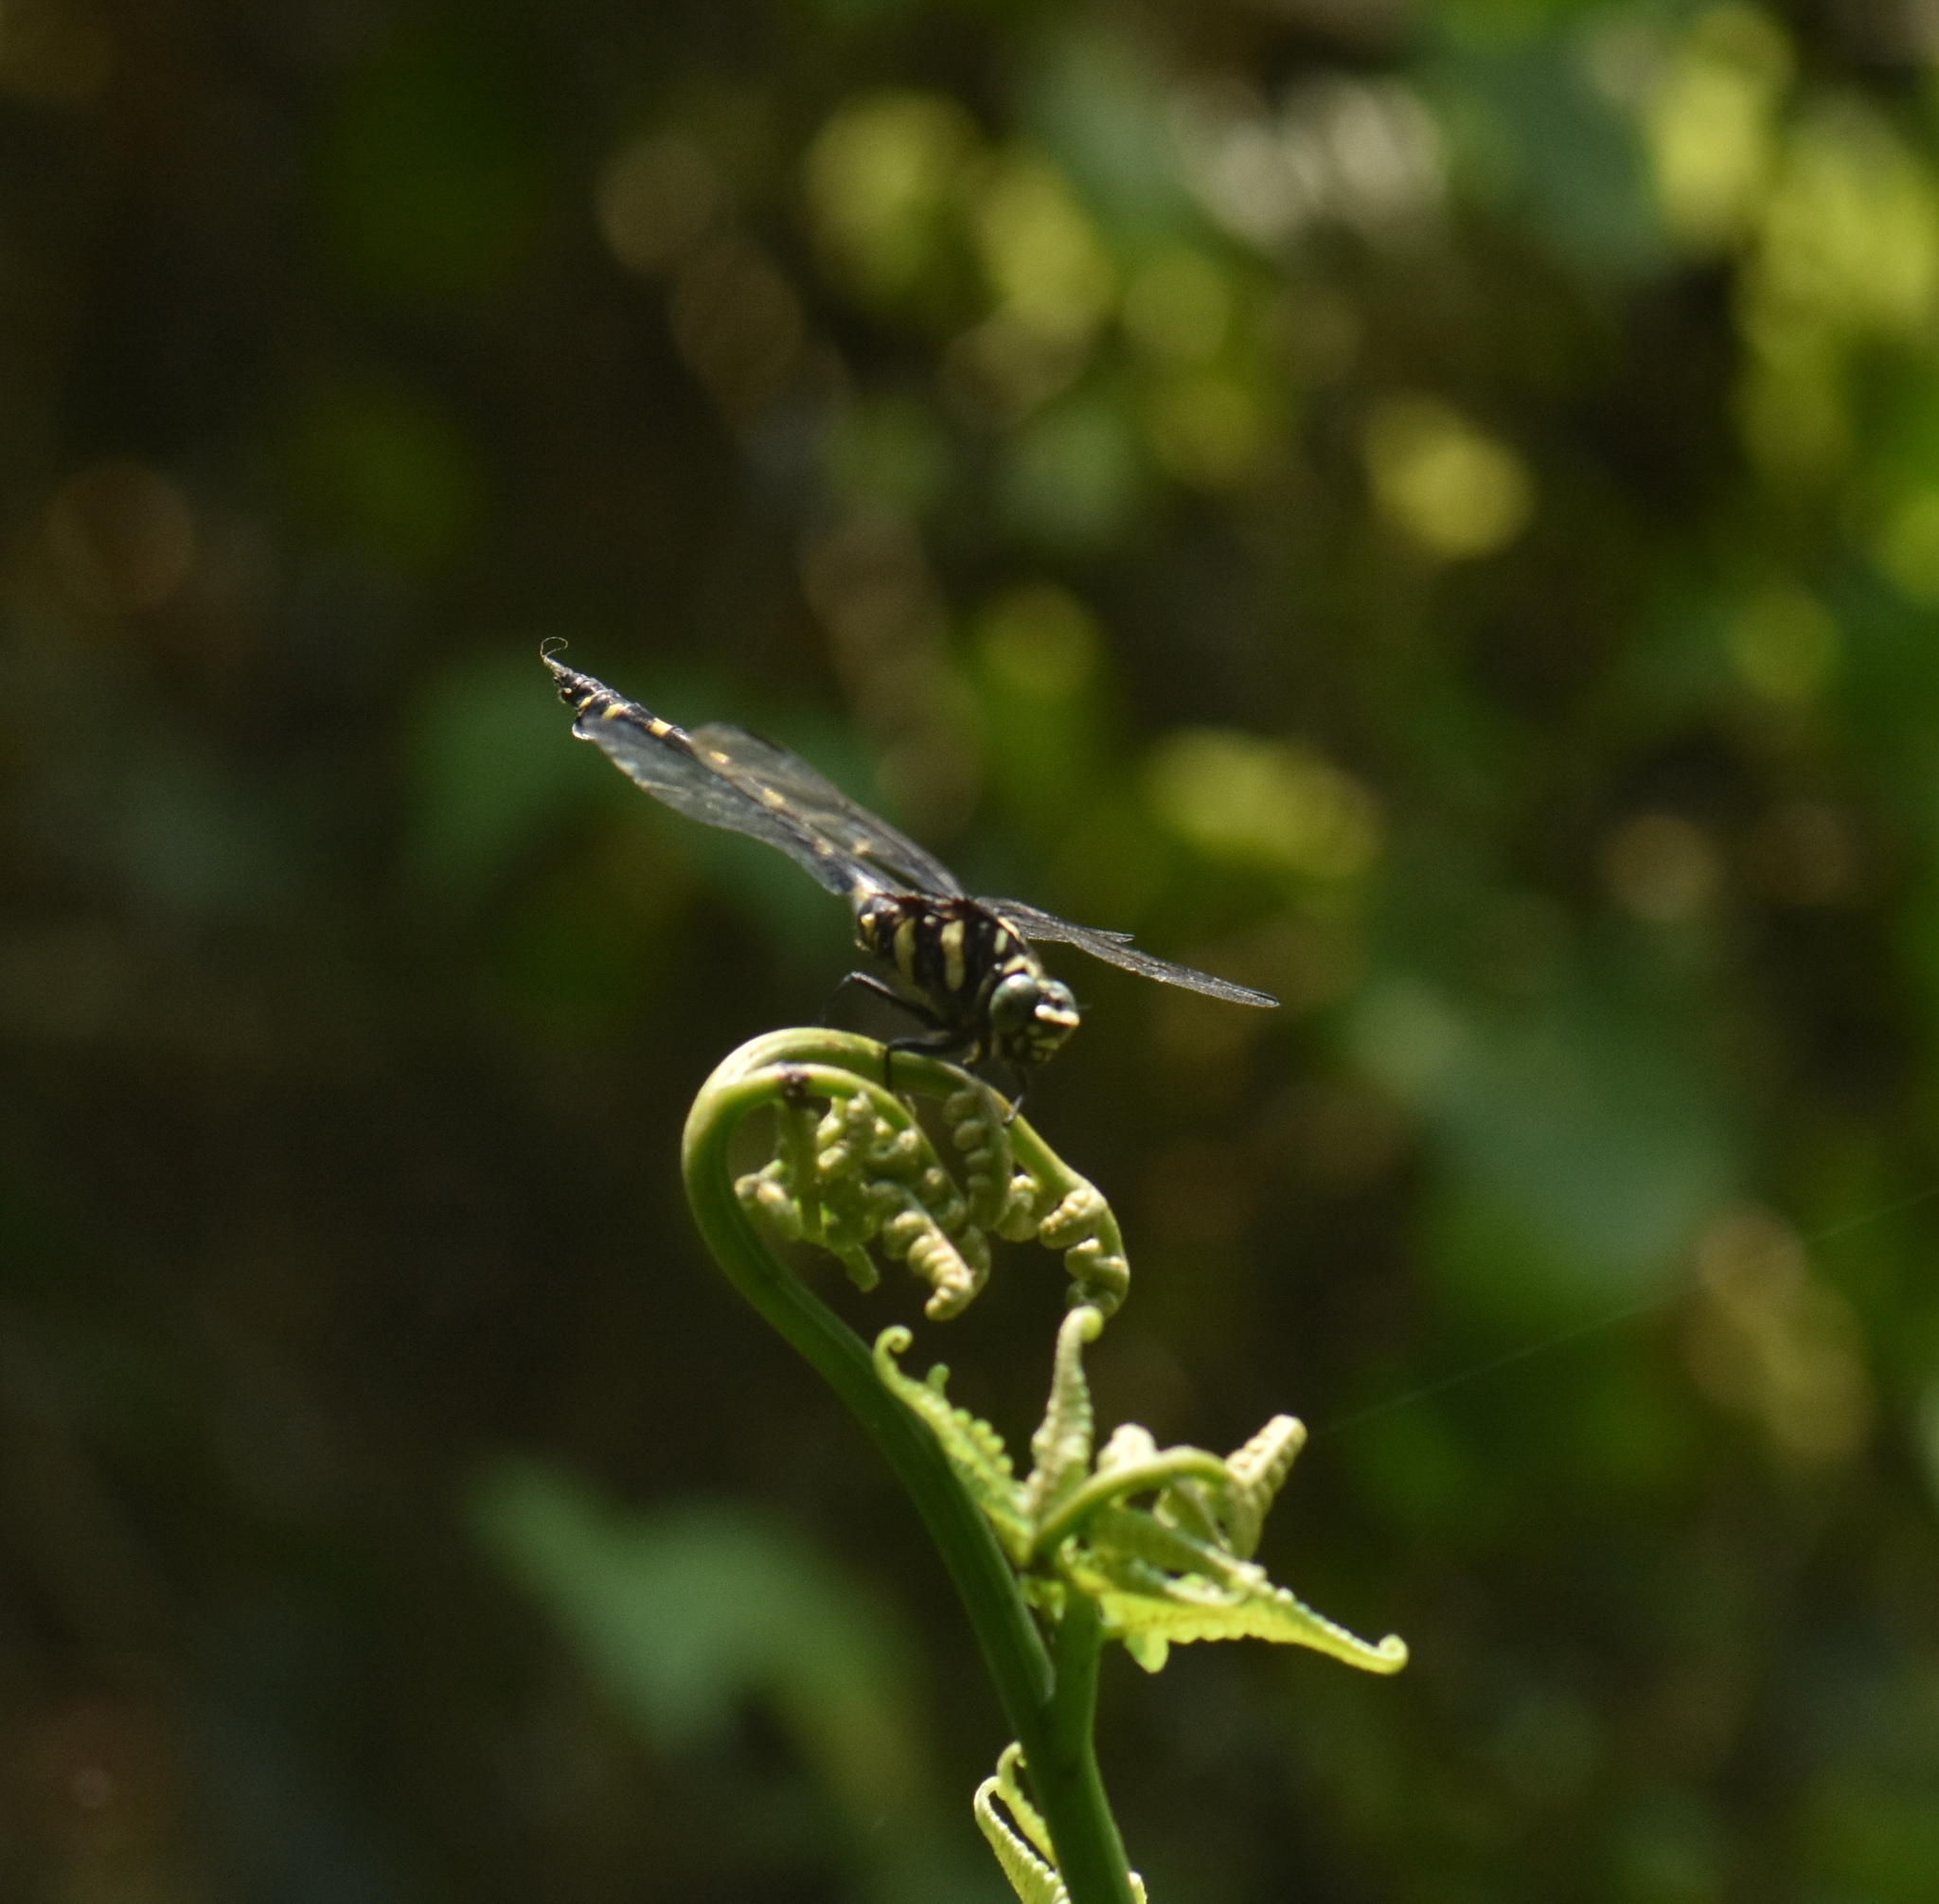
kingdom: Animalia
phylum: Arthropoda
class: Insecta
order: Odonata
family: Gomphidae
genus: Ictinogomphus
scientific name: Ictinogomphus rapax
